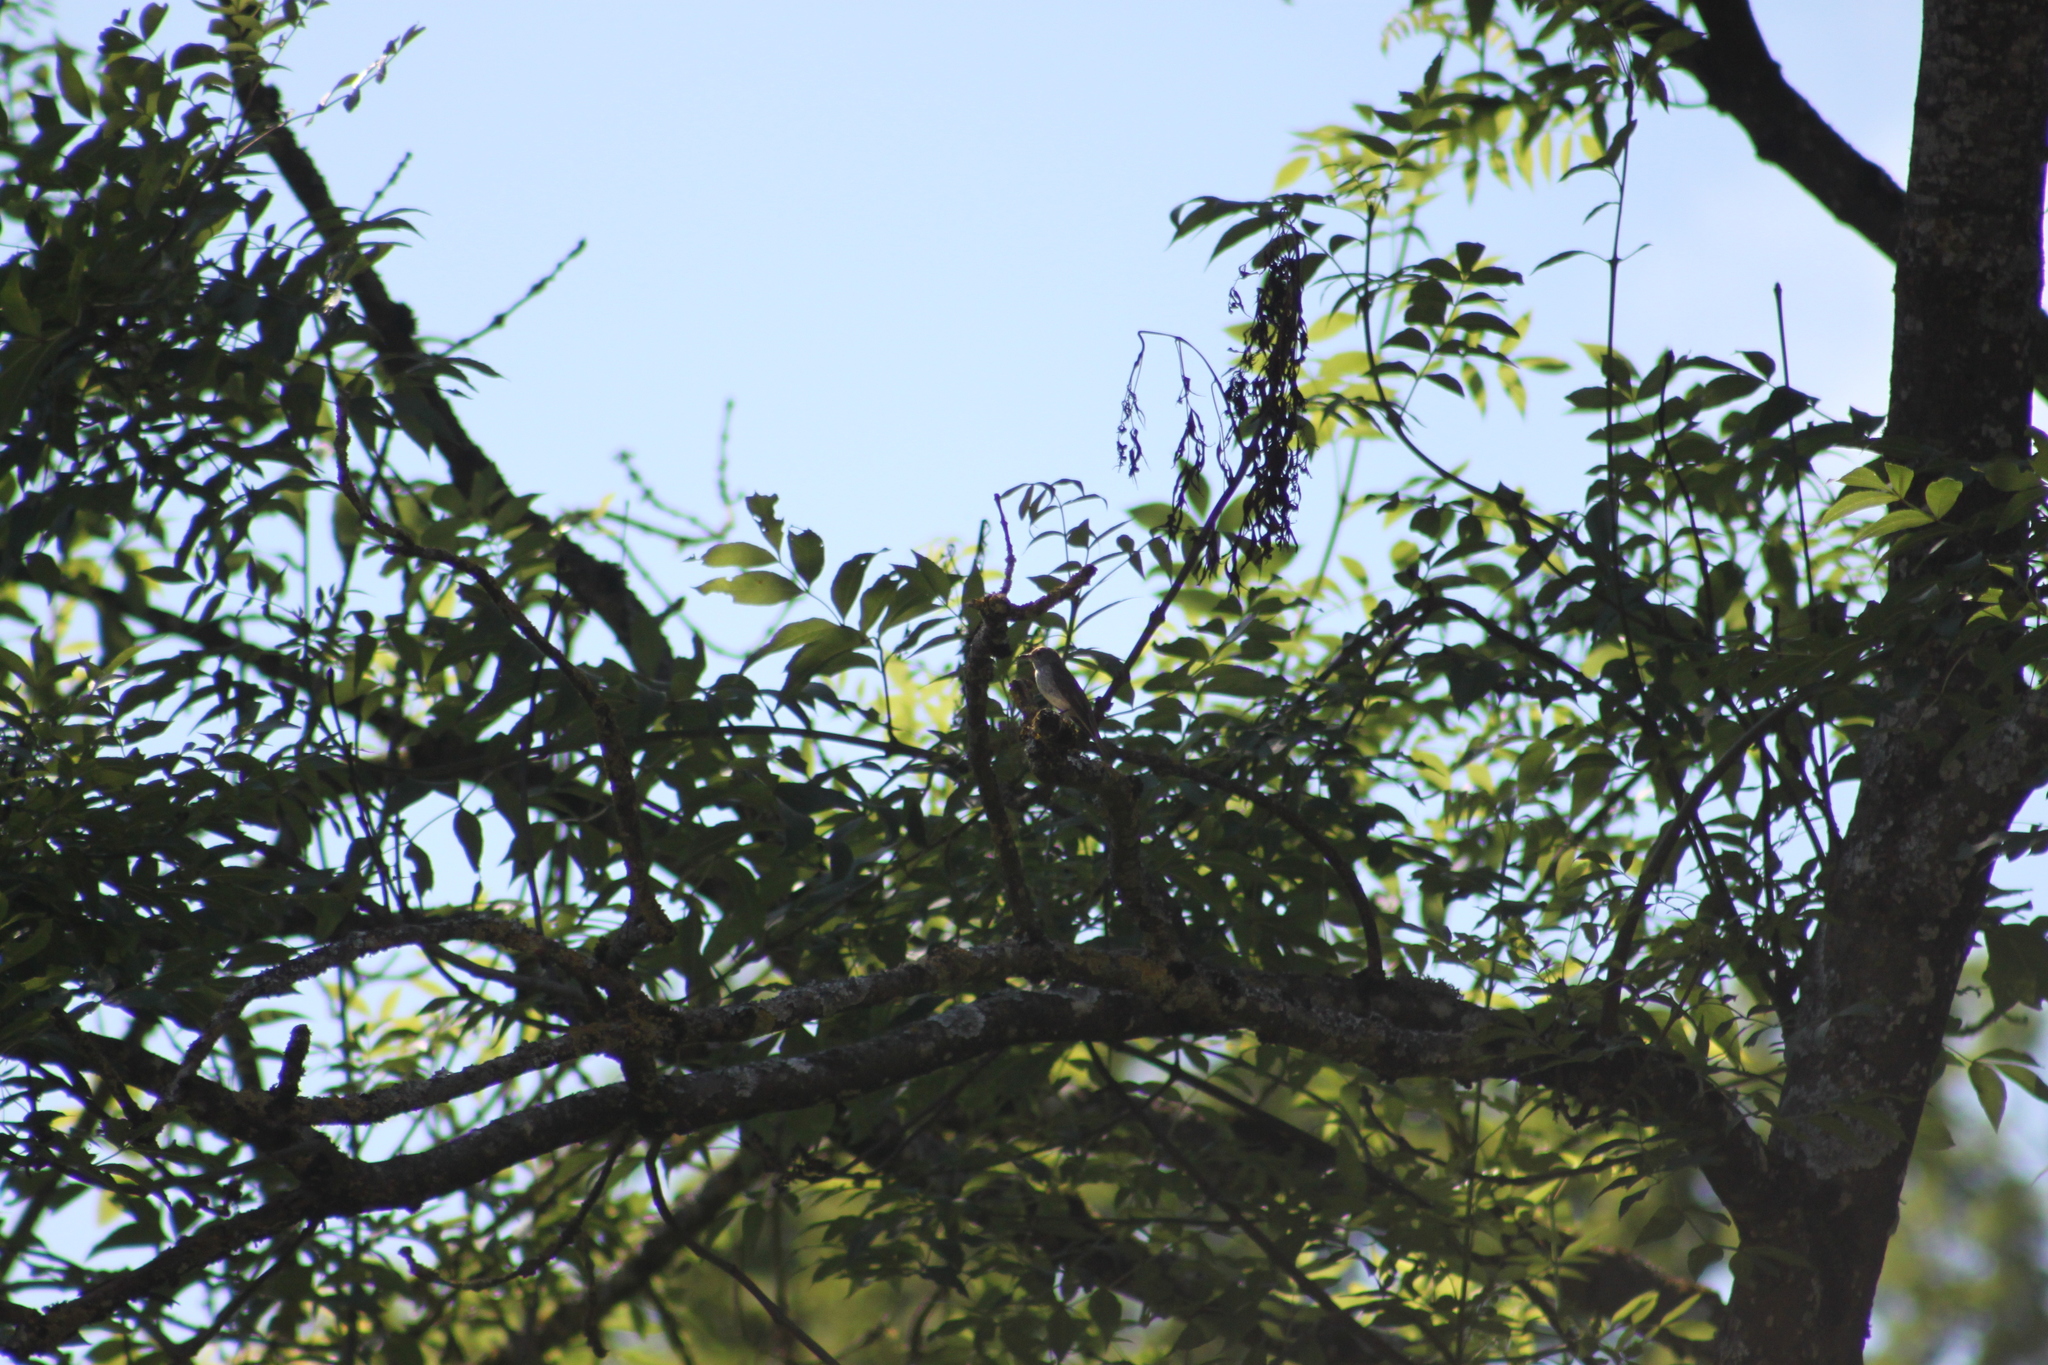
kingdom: Animalia
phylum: Chordata
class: Aves
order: Passeriformes
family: Muscicapidae
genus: Muscicapa
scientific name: Muscicapa striata
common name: Spotted flycatcher
